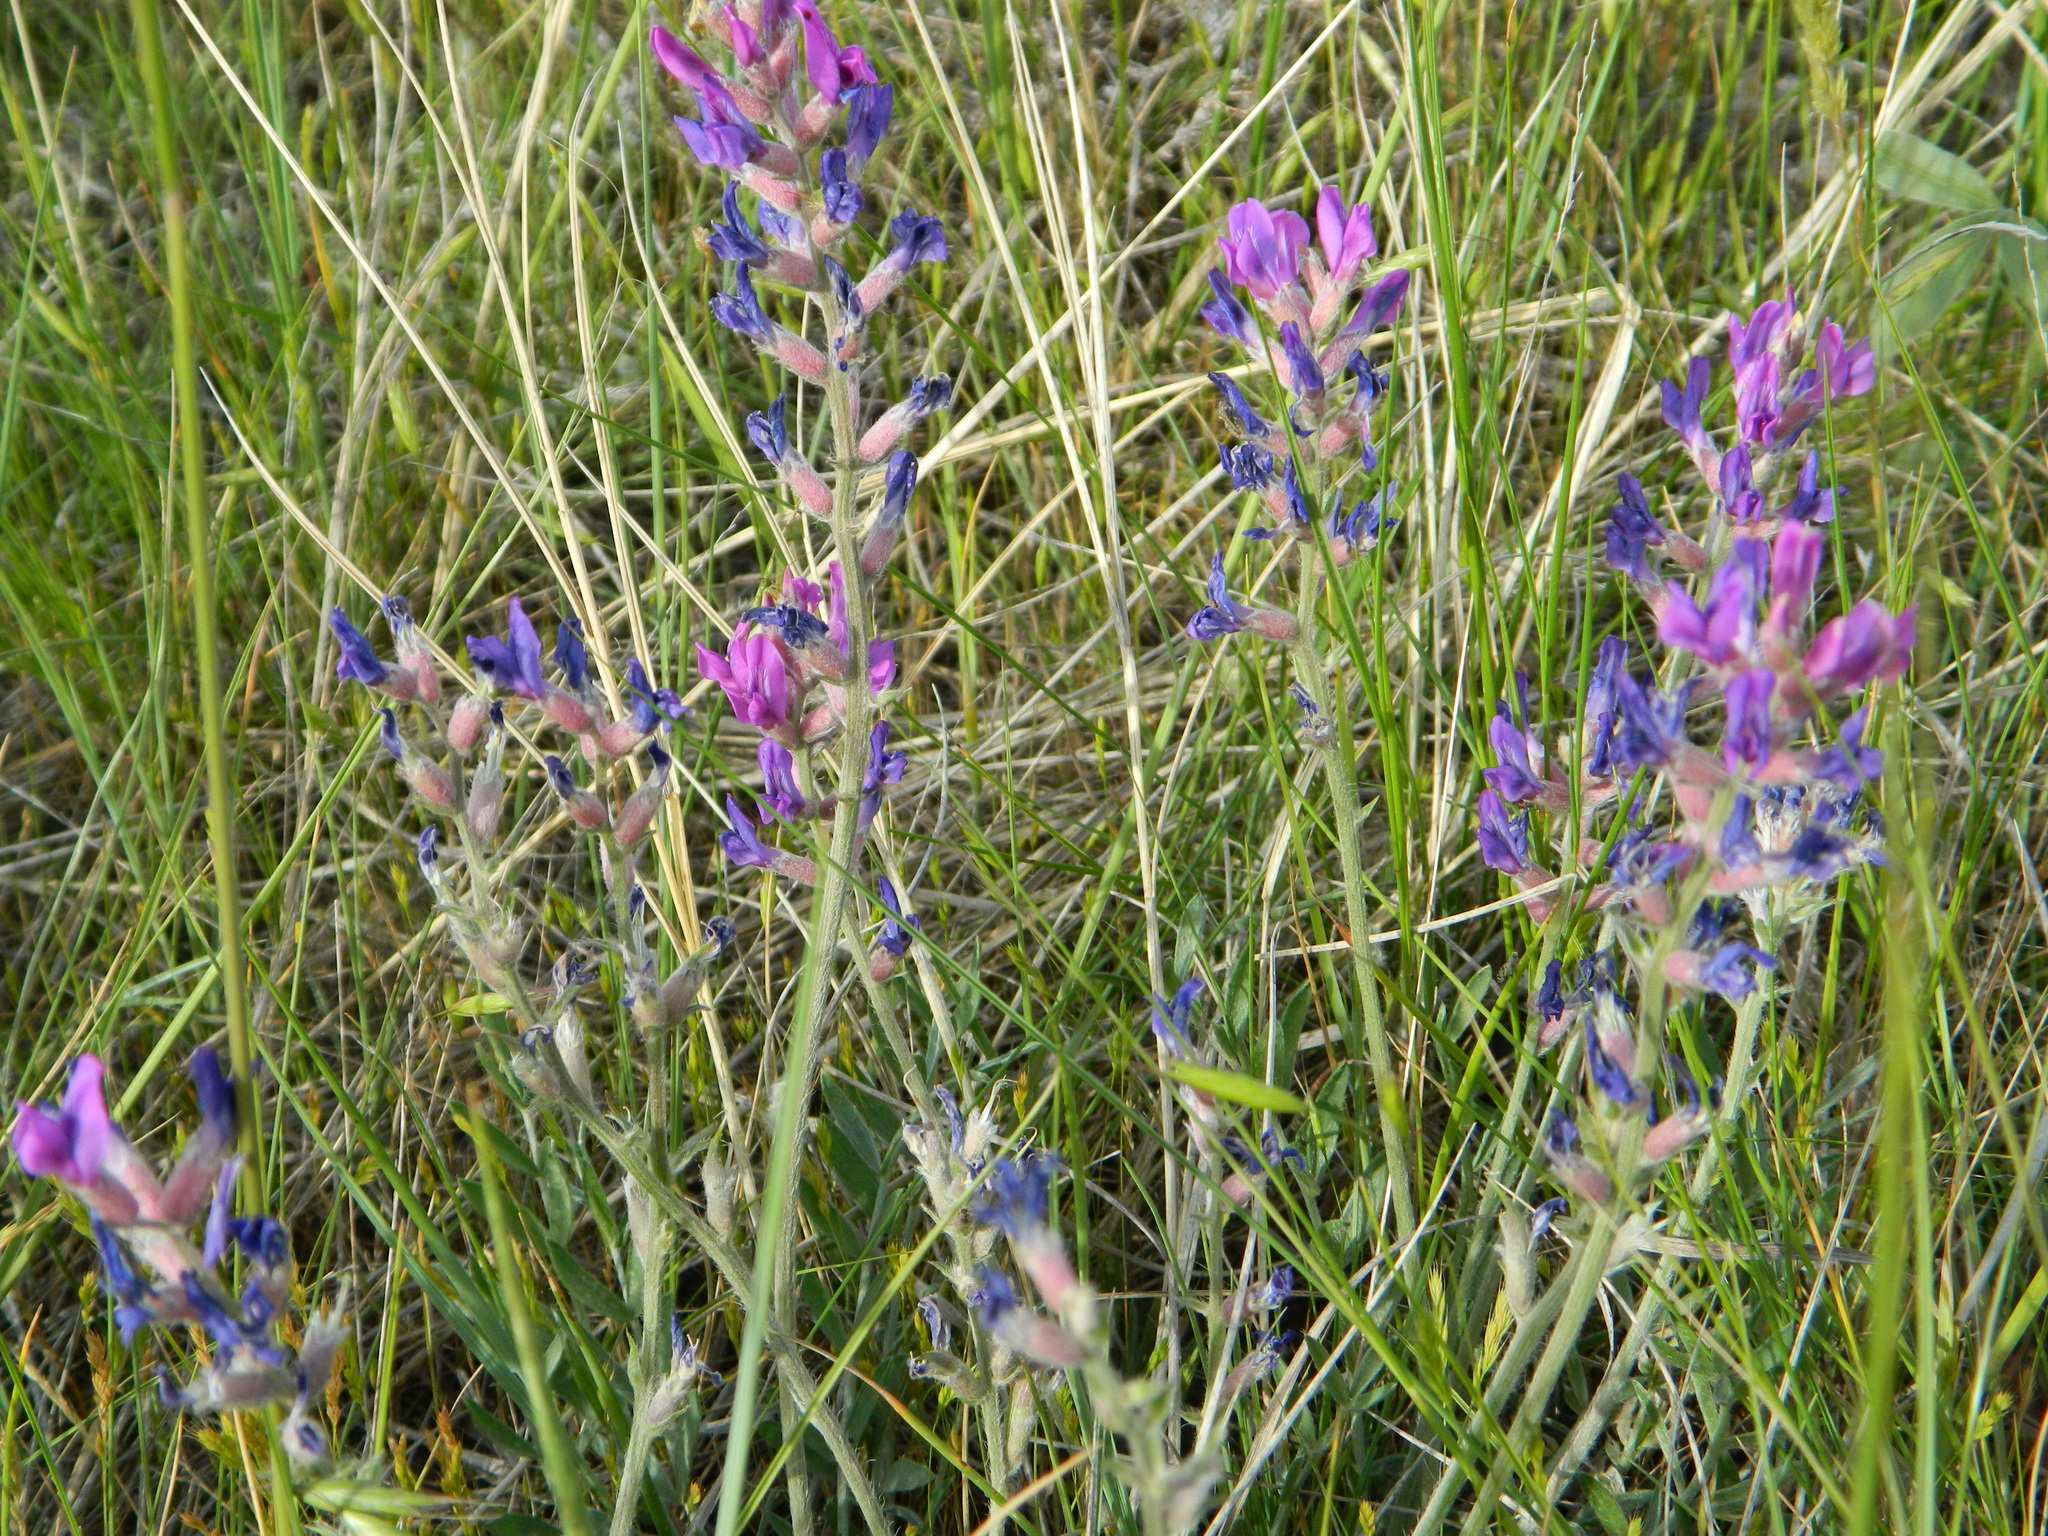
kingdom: Plantae
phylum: Tracheophyta
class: Magnoliopsida
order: Fabales
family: Fabaceae
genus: Oxytropis
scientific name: Oxytropis lambertii
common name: Purple locoweed
